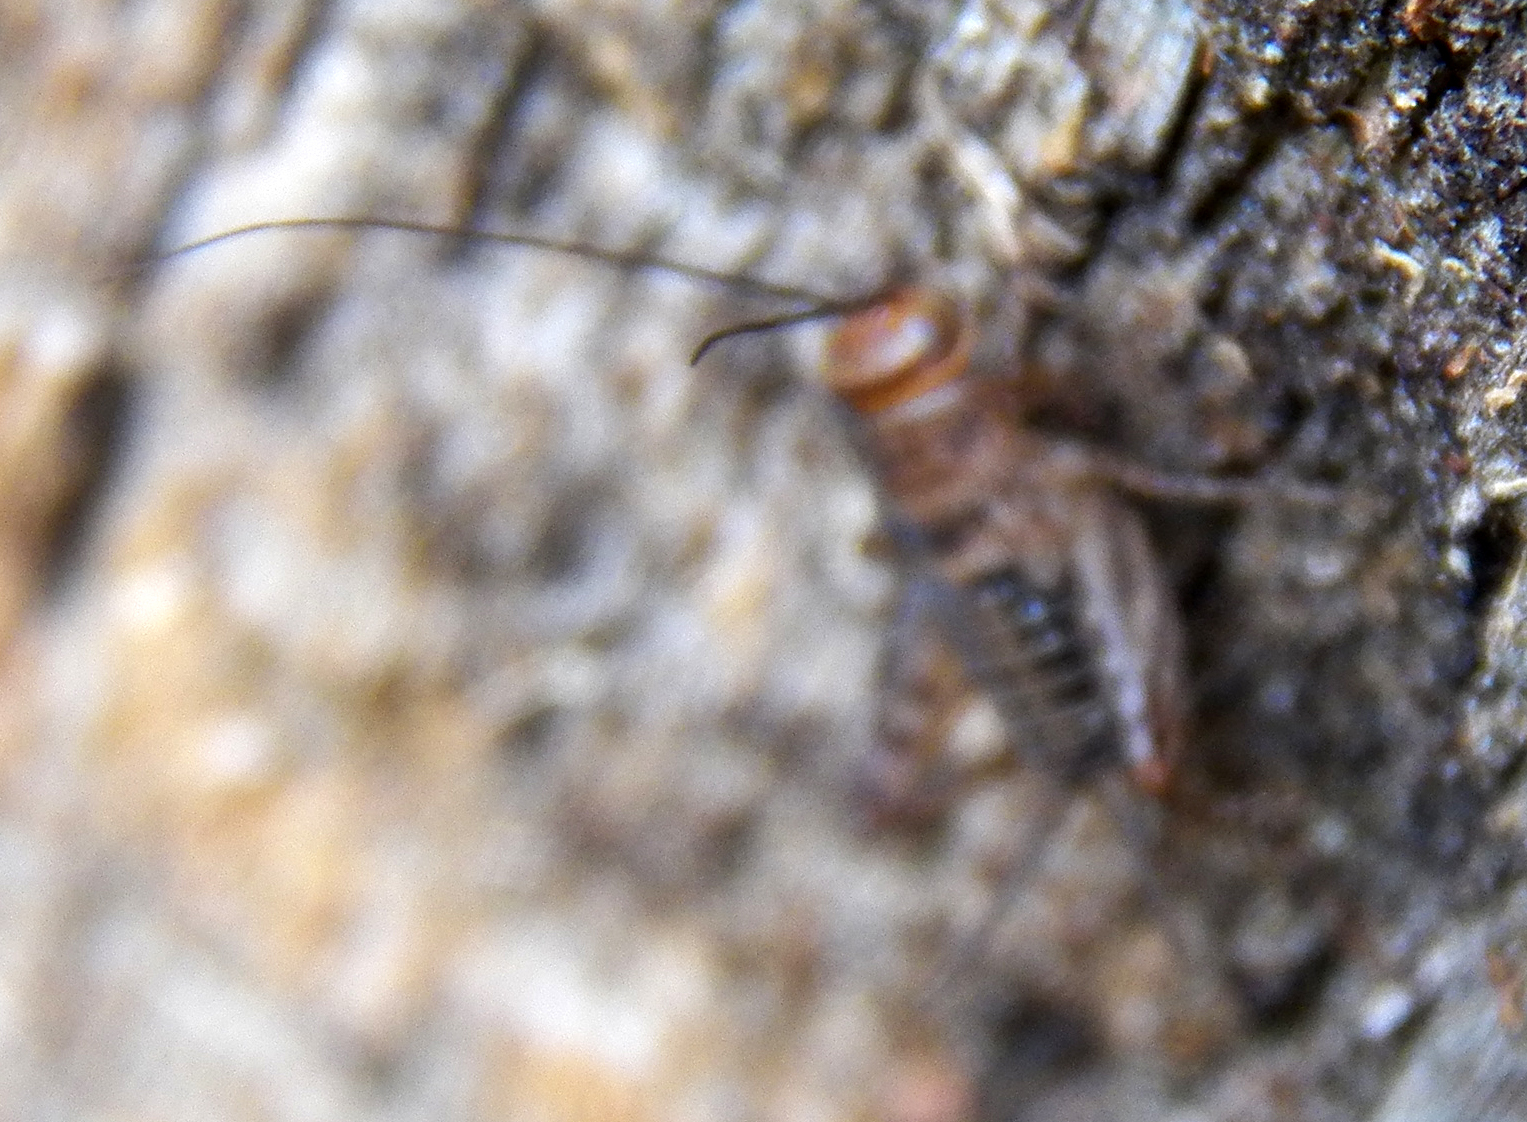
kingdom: Animalia
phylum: Arthropoda
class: Insecta
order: Orthoptera
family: Trigonidiidae
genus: Neonemobius
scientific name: Neonemobius mormonius
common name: Mormon ground cricket
